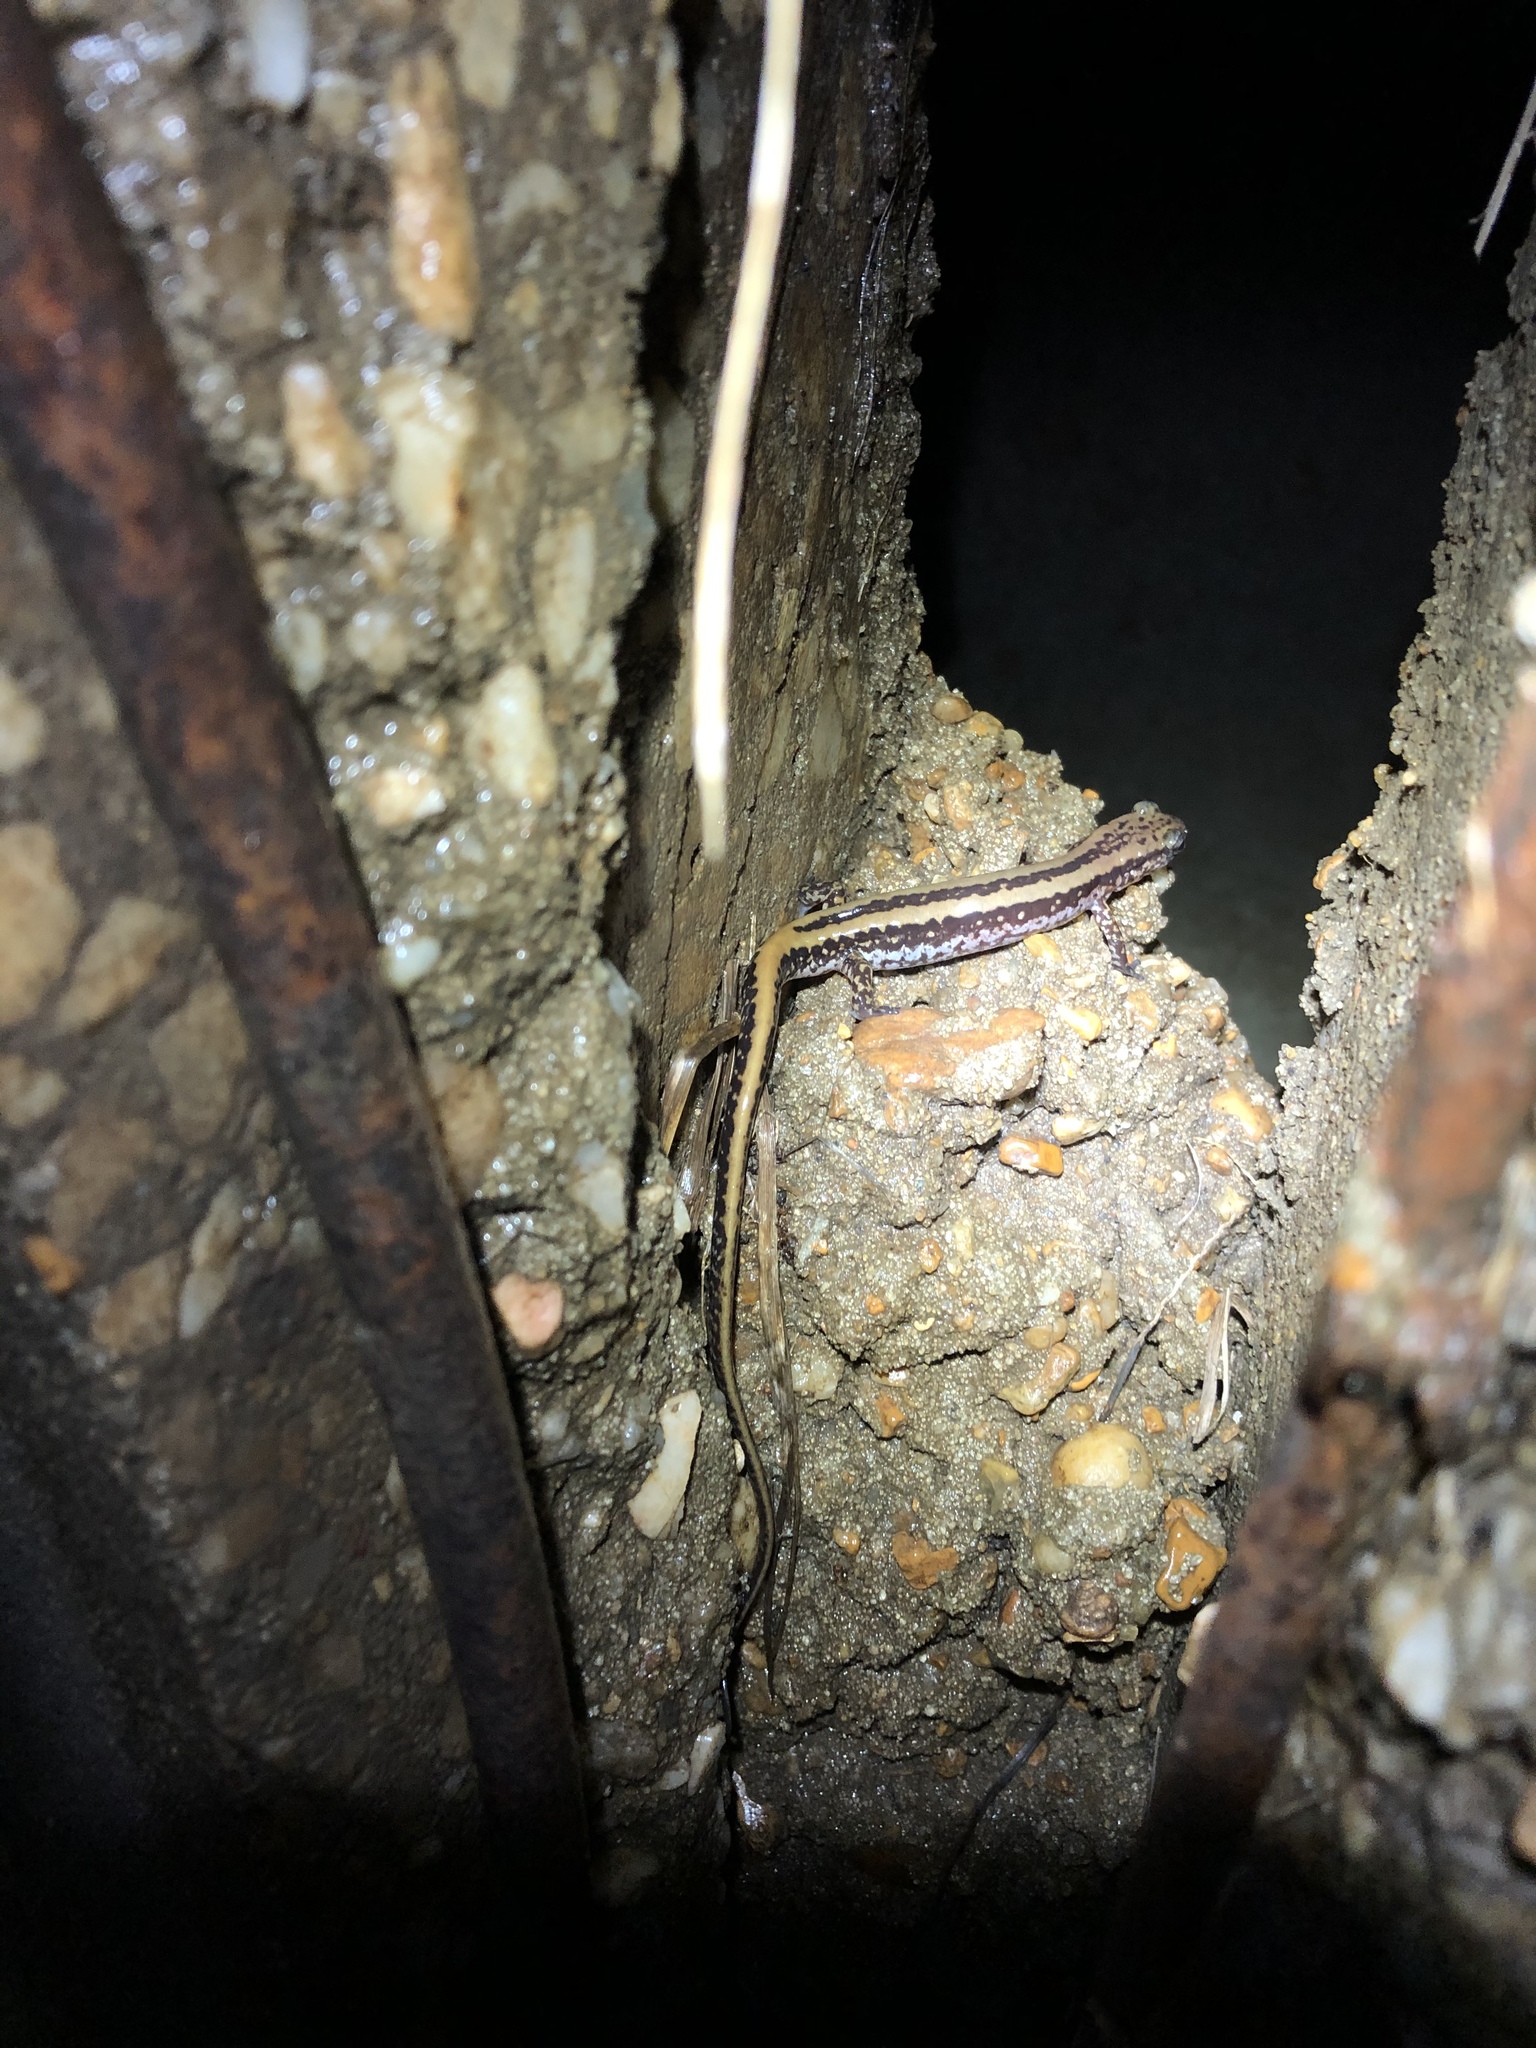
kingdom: Animalia
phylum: Chordata
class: Amphibia
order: Caudata
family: Plethodontidae
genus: Eurycea
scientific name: Eurycea guttolineata
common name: Three-lined salamander
